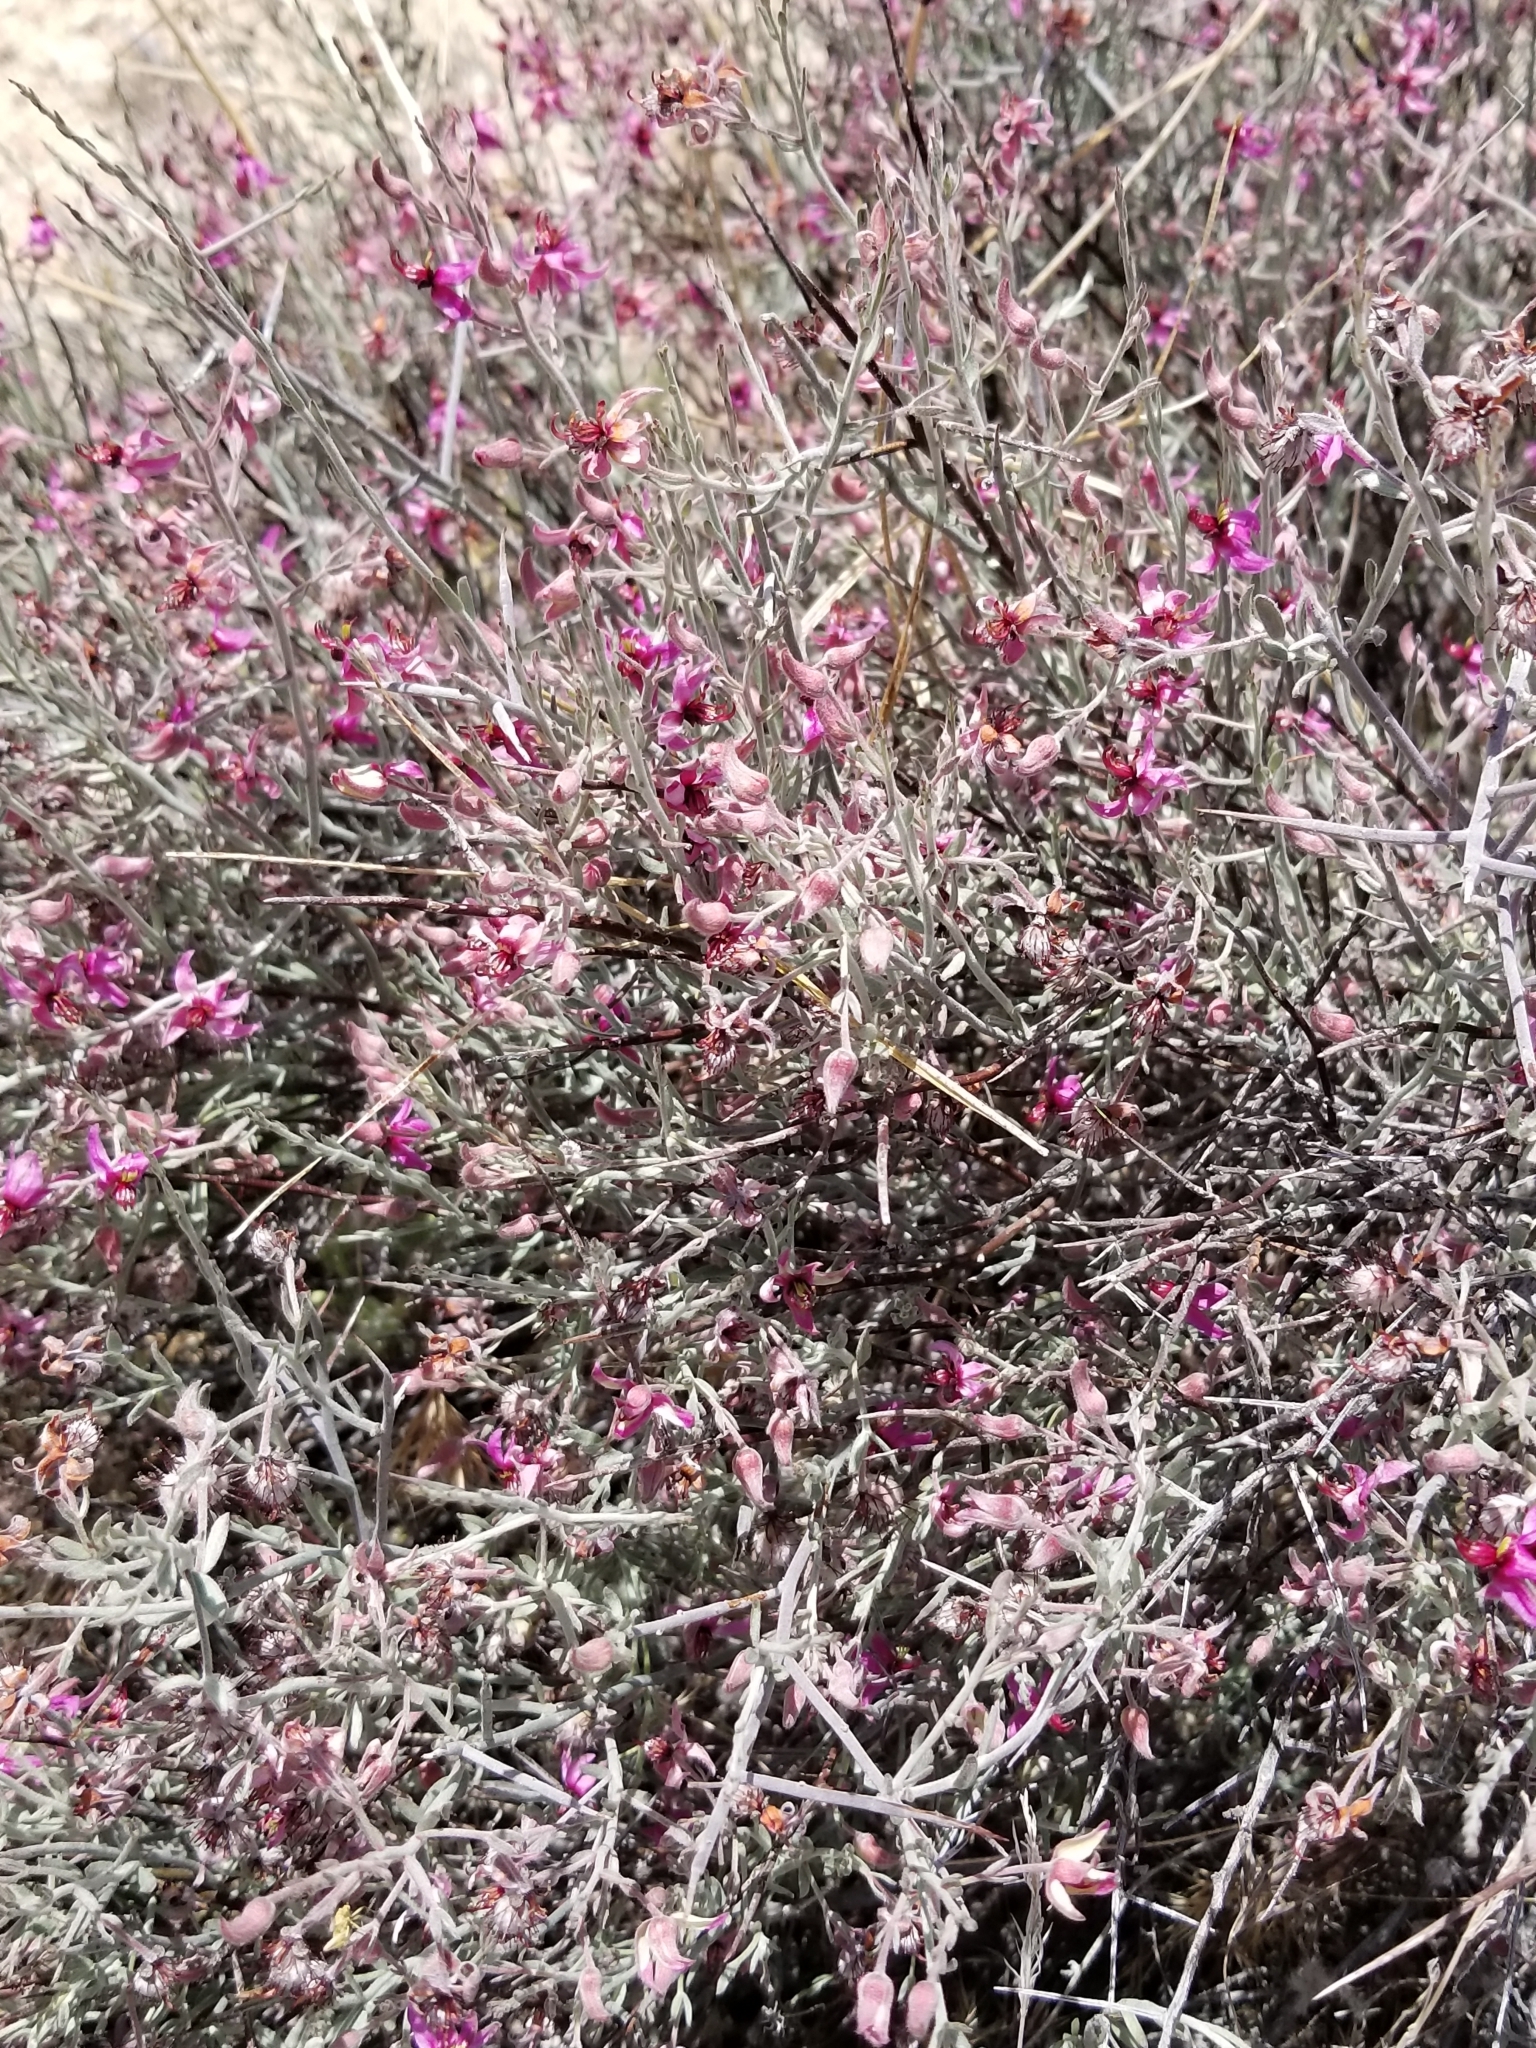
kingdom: Plantae
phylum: Tracheophyta
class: Magnoliopsida
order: Zygophyllales
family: Krameriaceae
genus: Krameria
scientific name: Krameria bicolor
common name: White ratany
